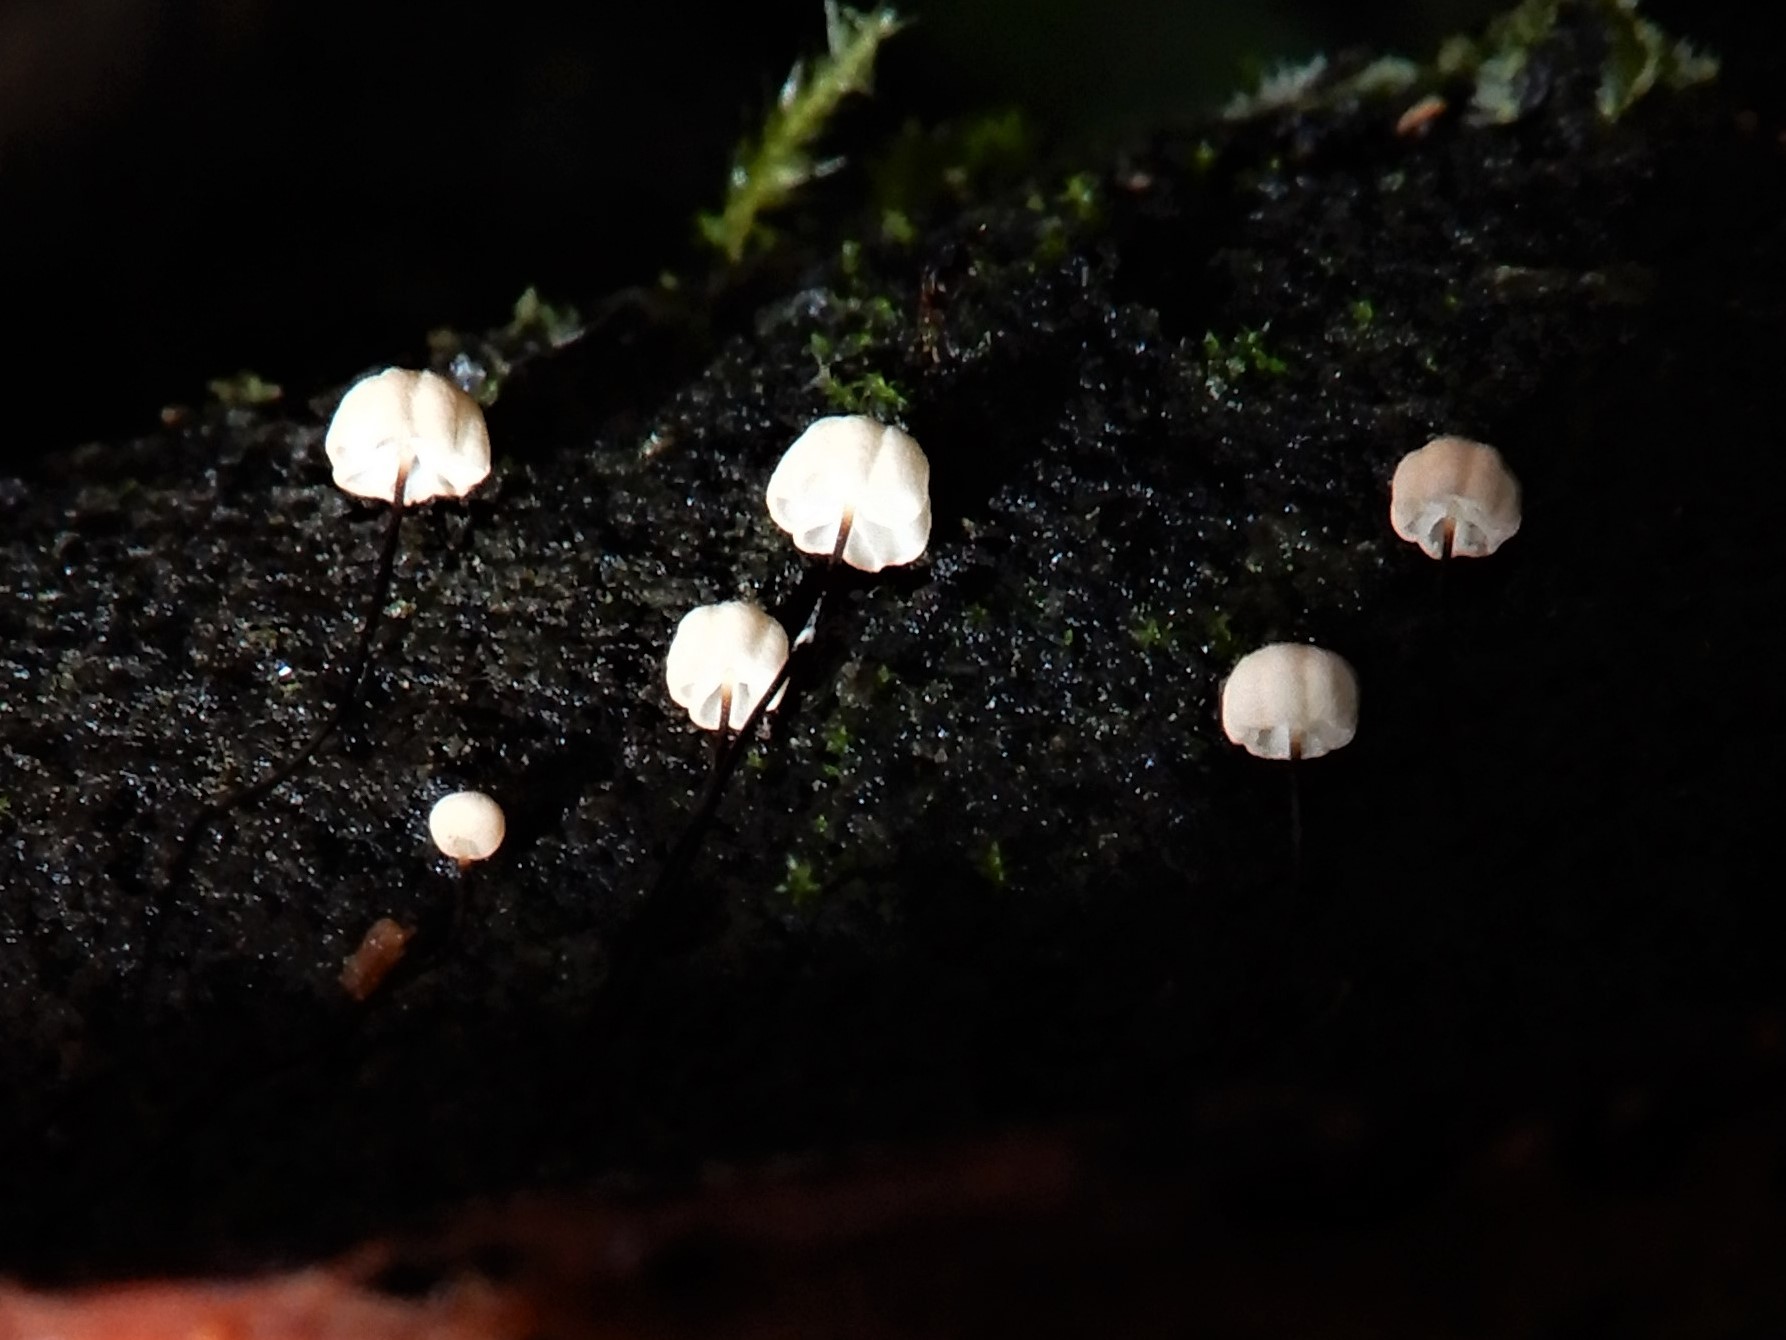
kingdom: Fungi
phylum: Basidiomycota
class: Agaricomycetes
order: Agaricales
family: Marasmiaceae
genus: Marasmius
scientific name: Marasmius
